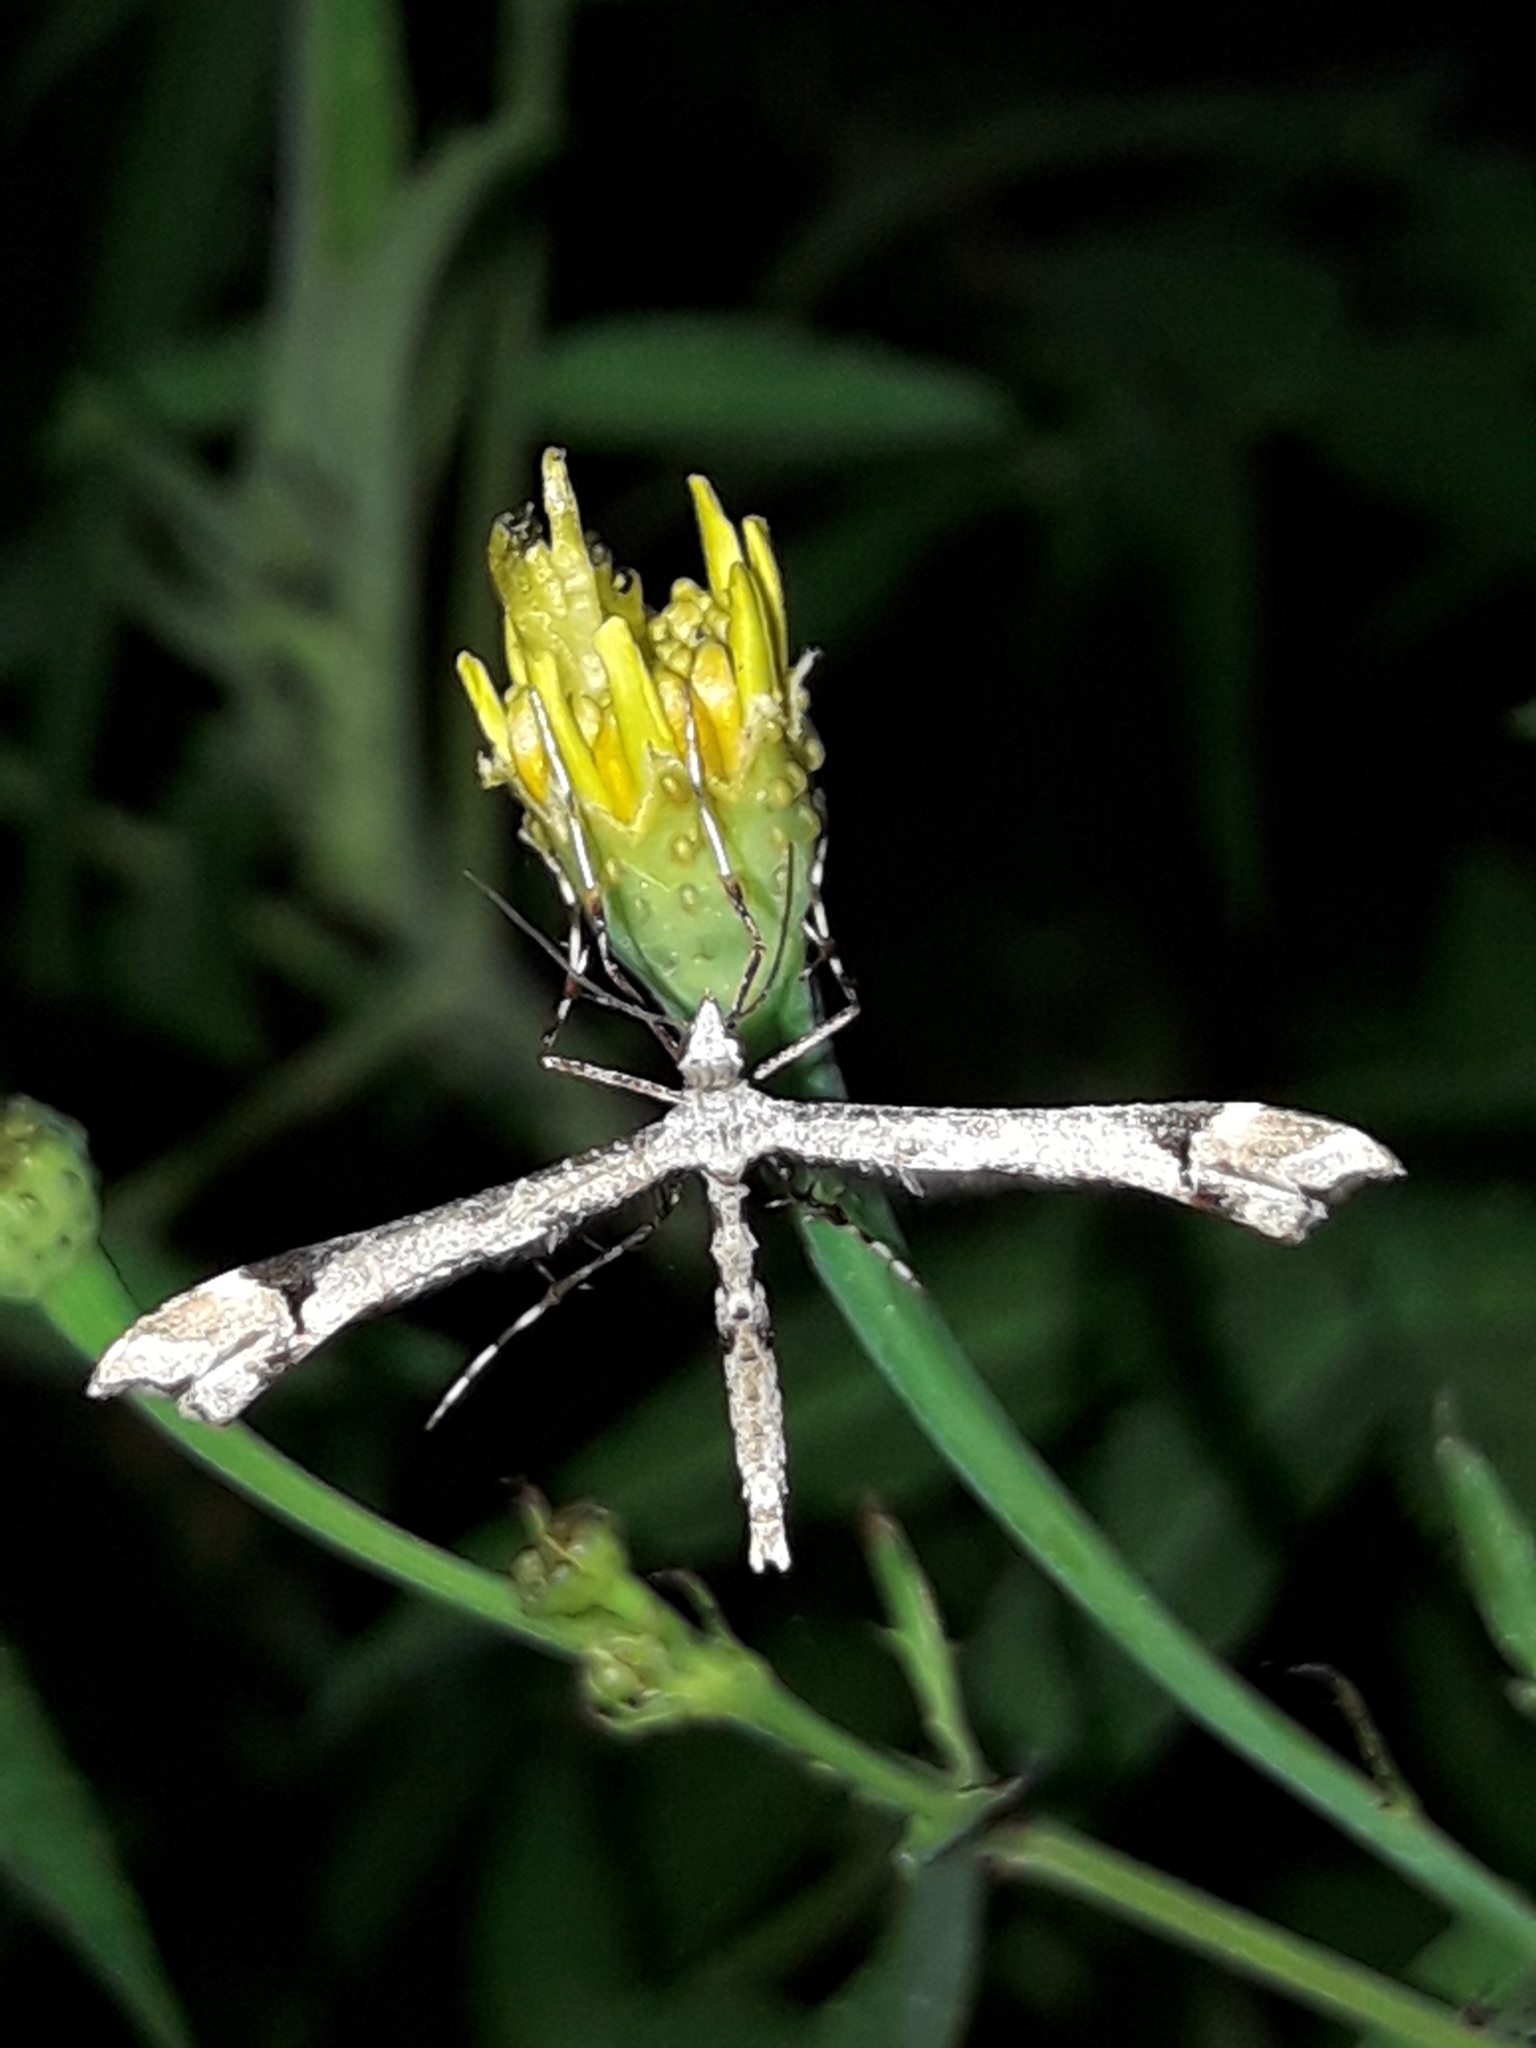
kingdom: Animalia
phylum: Arthropoda
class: Insecta
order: Lepidoptera
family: Pterophoridae
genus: Amblyptilia
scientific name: Amblyptilia falcatalis
